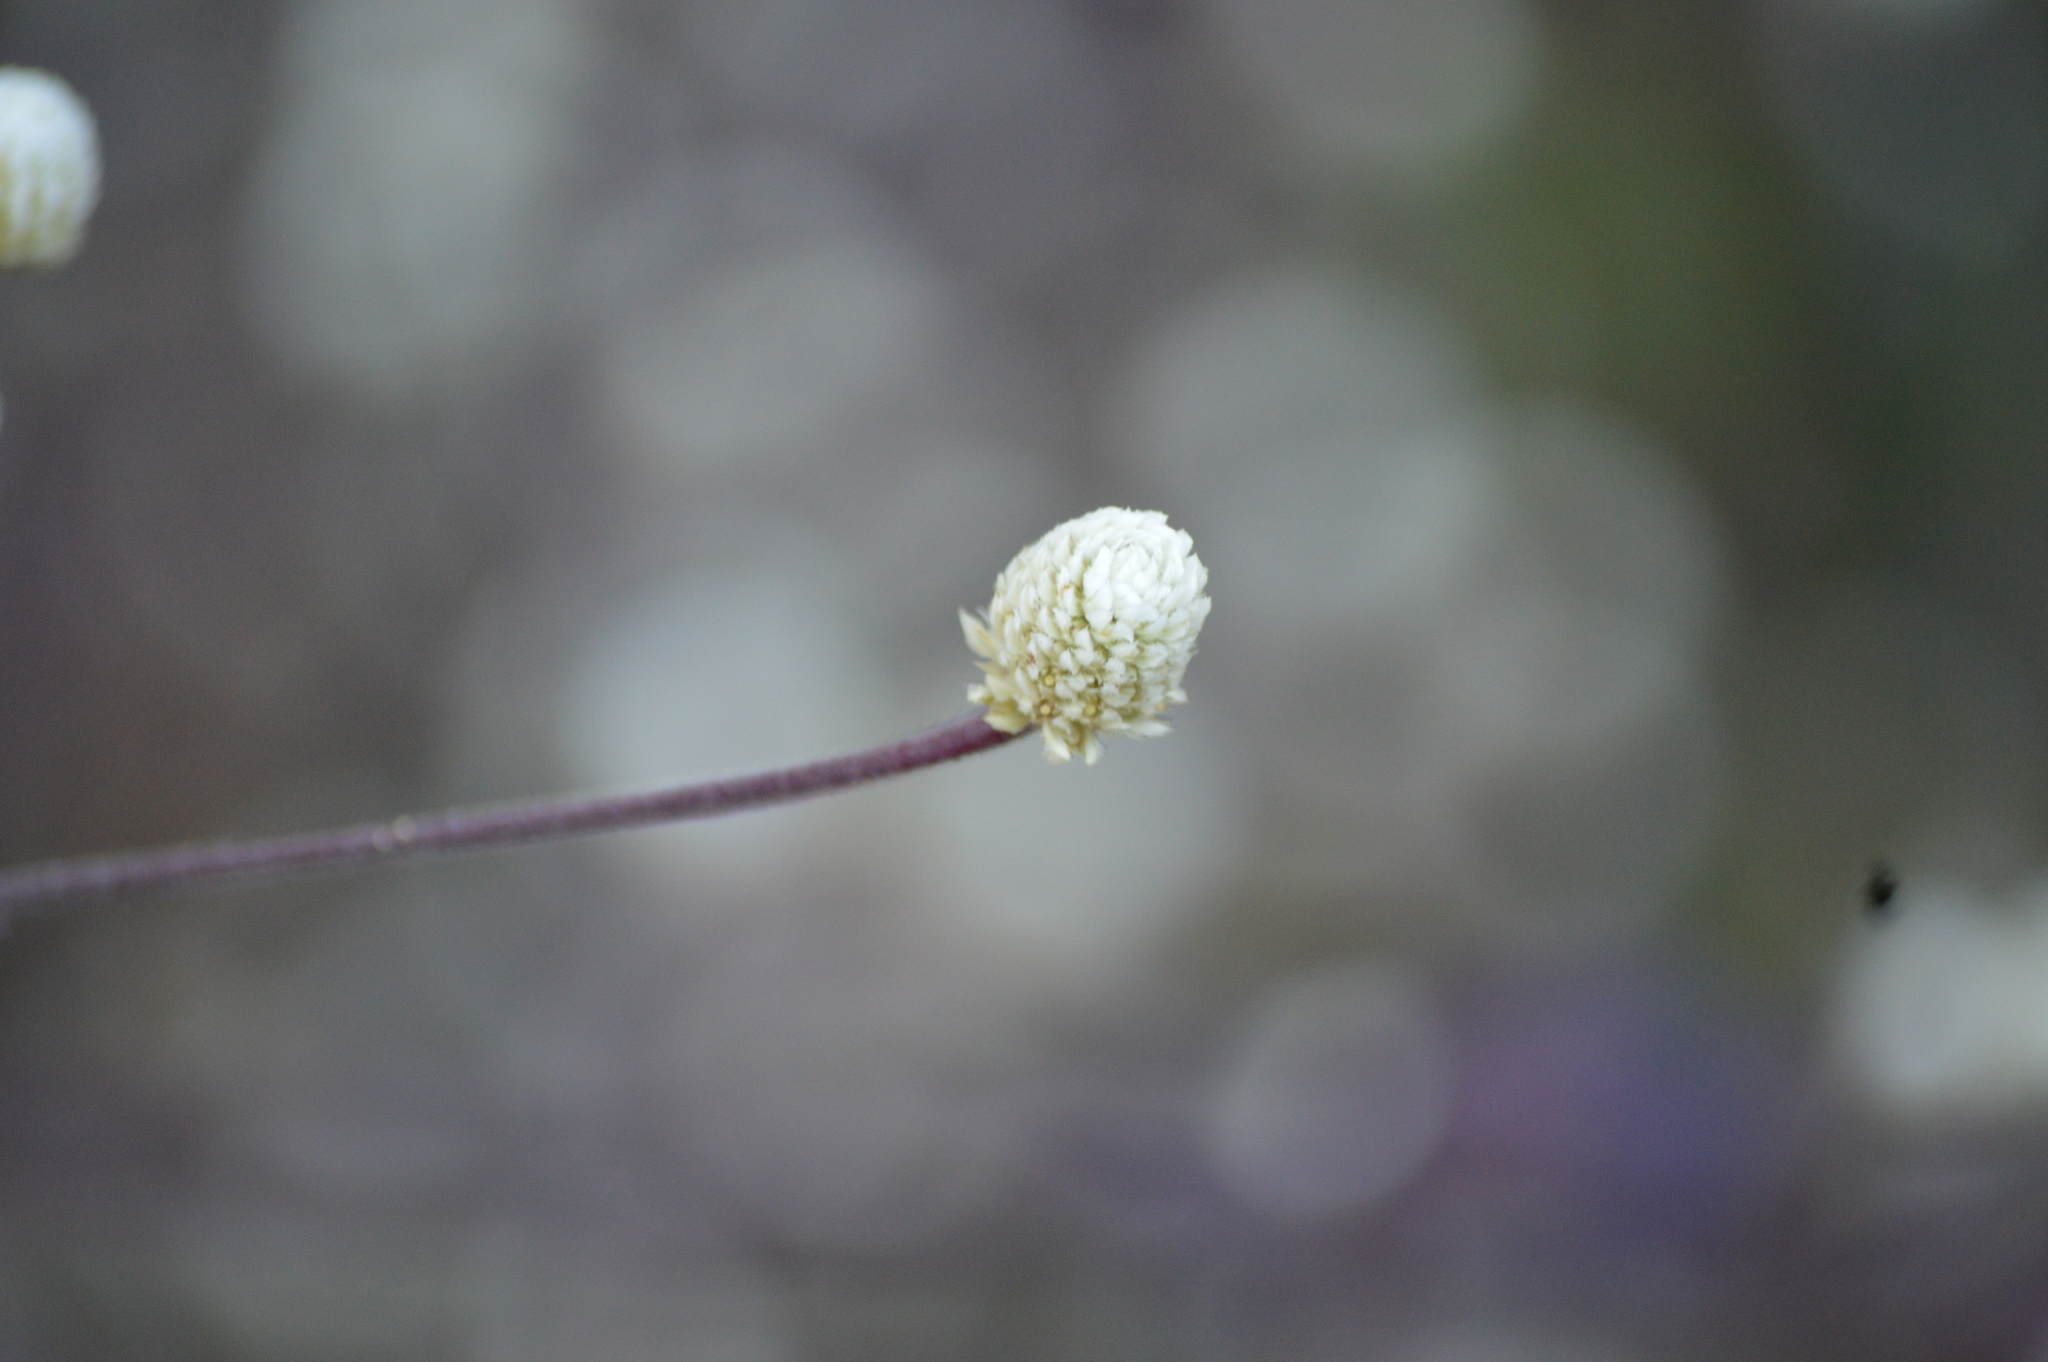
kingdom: Plantae
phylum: Tracheophyta
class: Magnoliopsida
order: Caryophyllales
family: Amaranthaceae
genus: Alternanthera
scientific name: Alternanthera brasiliana
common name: Brazilian joyweed
